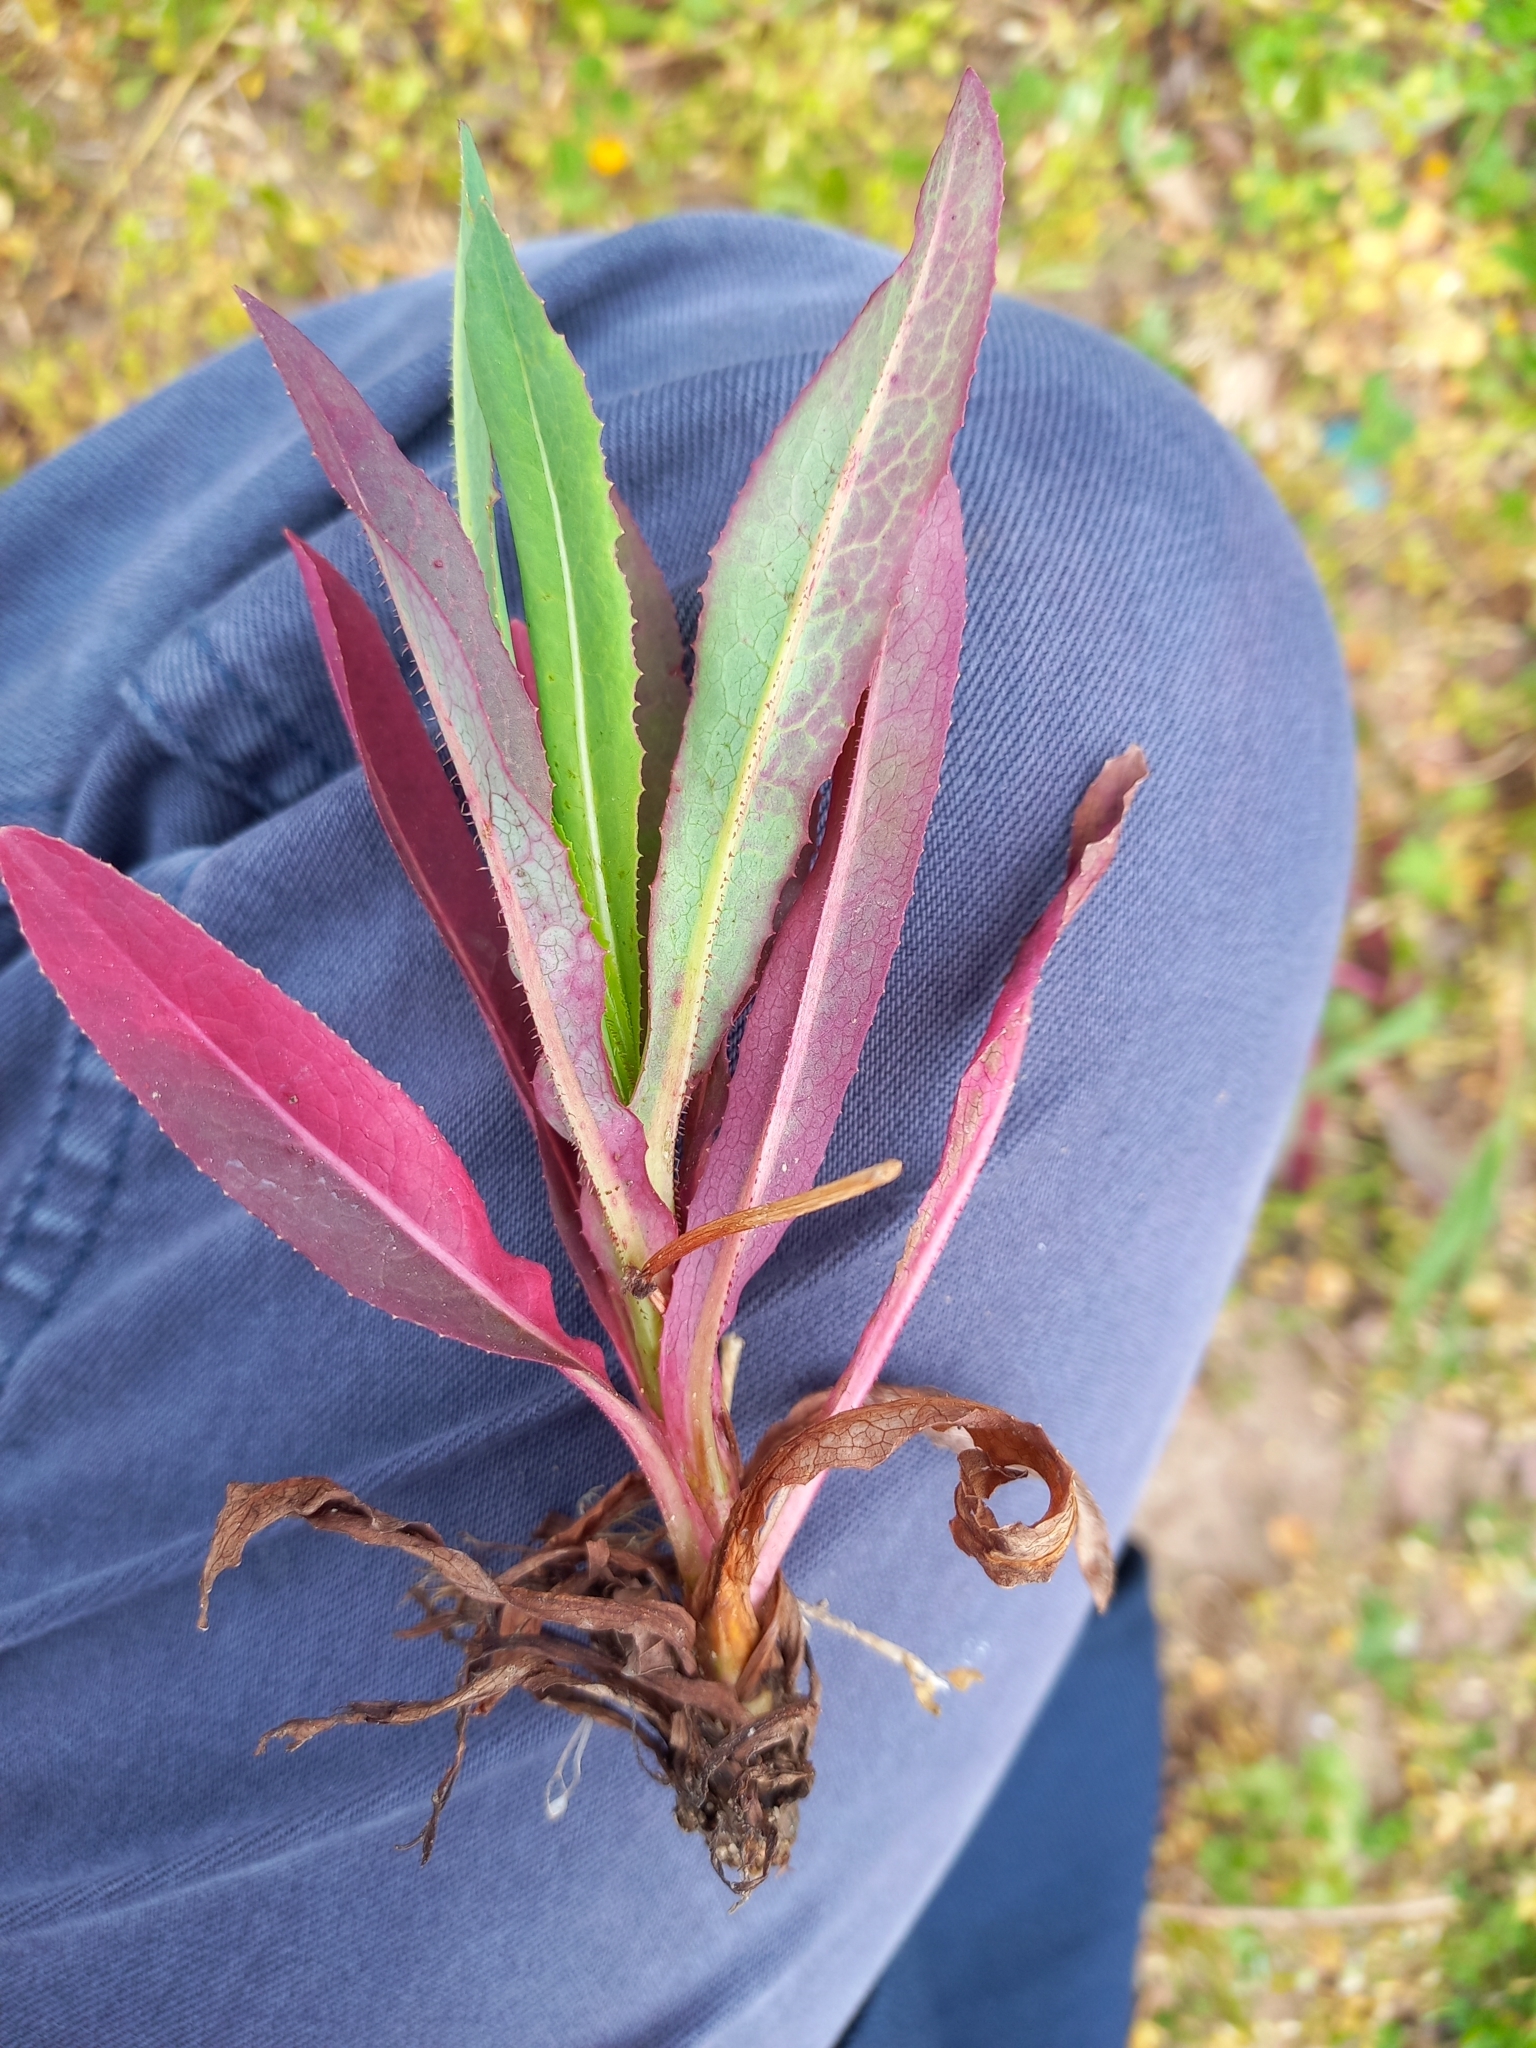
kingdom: Plantae
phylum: Tracheophyta
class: Magnoliopsida
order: Asterales
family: Asteraceae
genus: Lactuca
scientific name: Lactuca serriola
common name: Prickly lettuce
